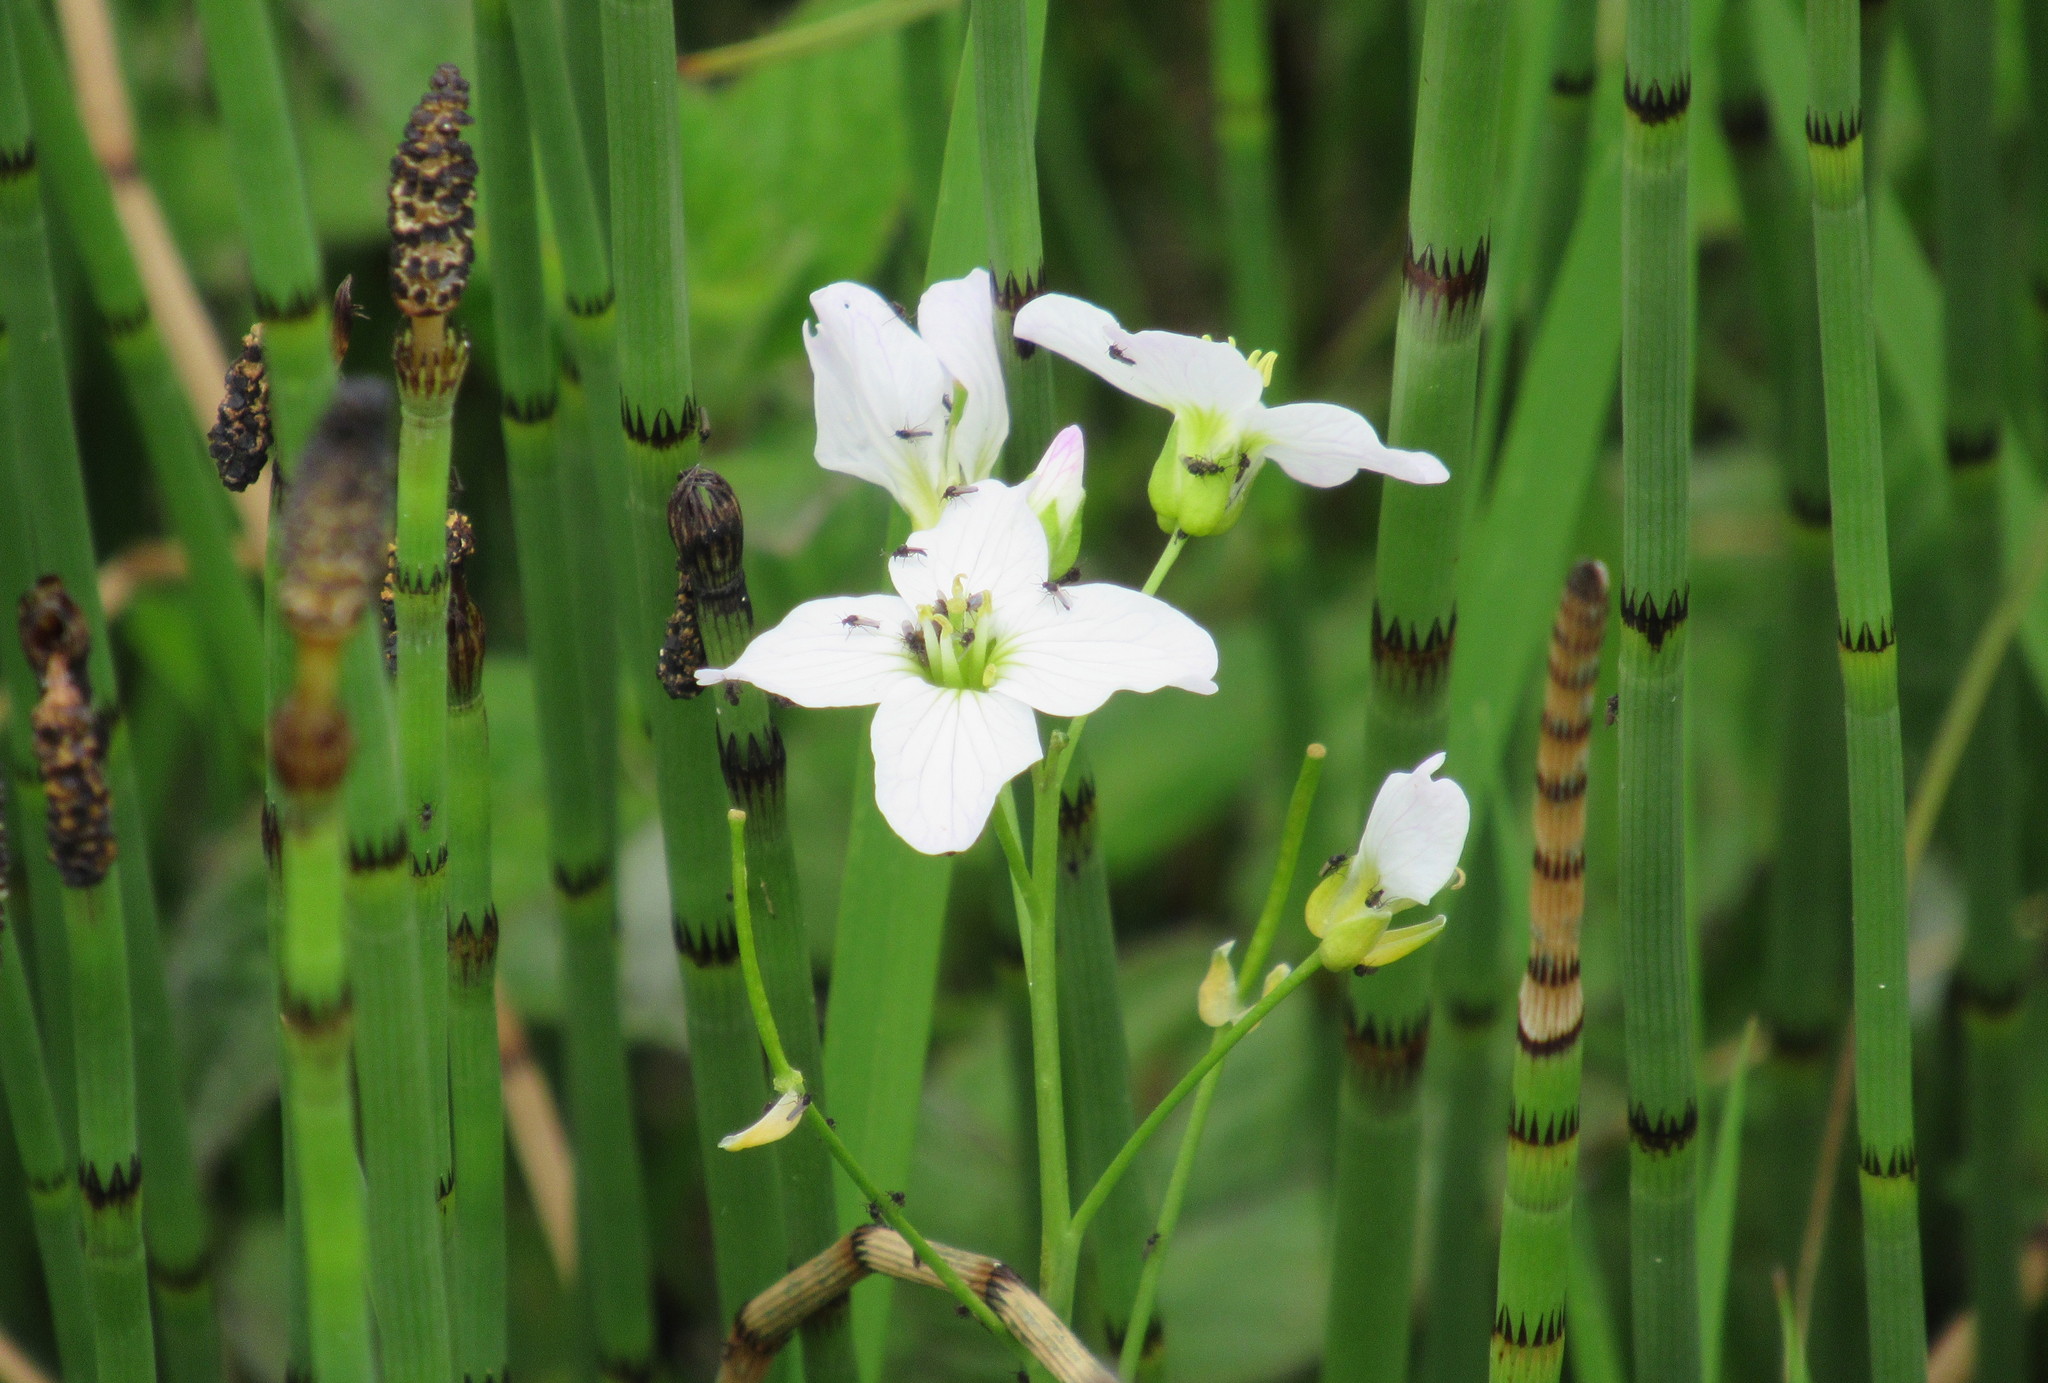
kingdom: Plantae
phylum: Tracheophyta
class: Magnoliopsida
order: Brassicales
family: Brassicaceae
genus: Cardamine
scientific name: Cardamine pratensis
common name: Cuckoo flower
